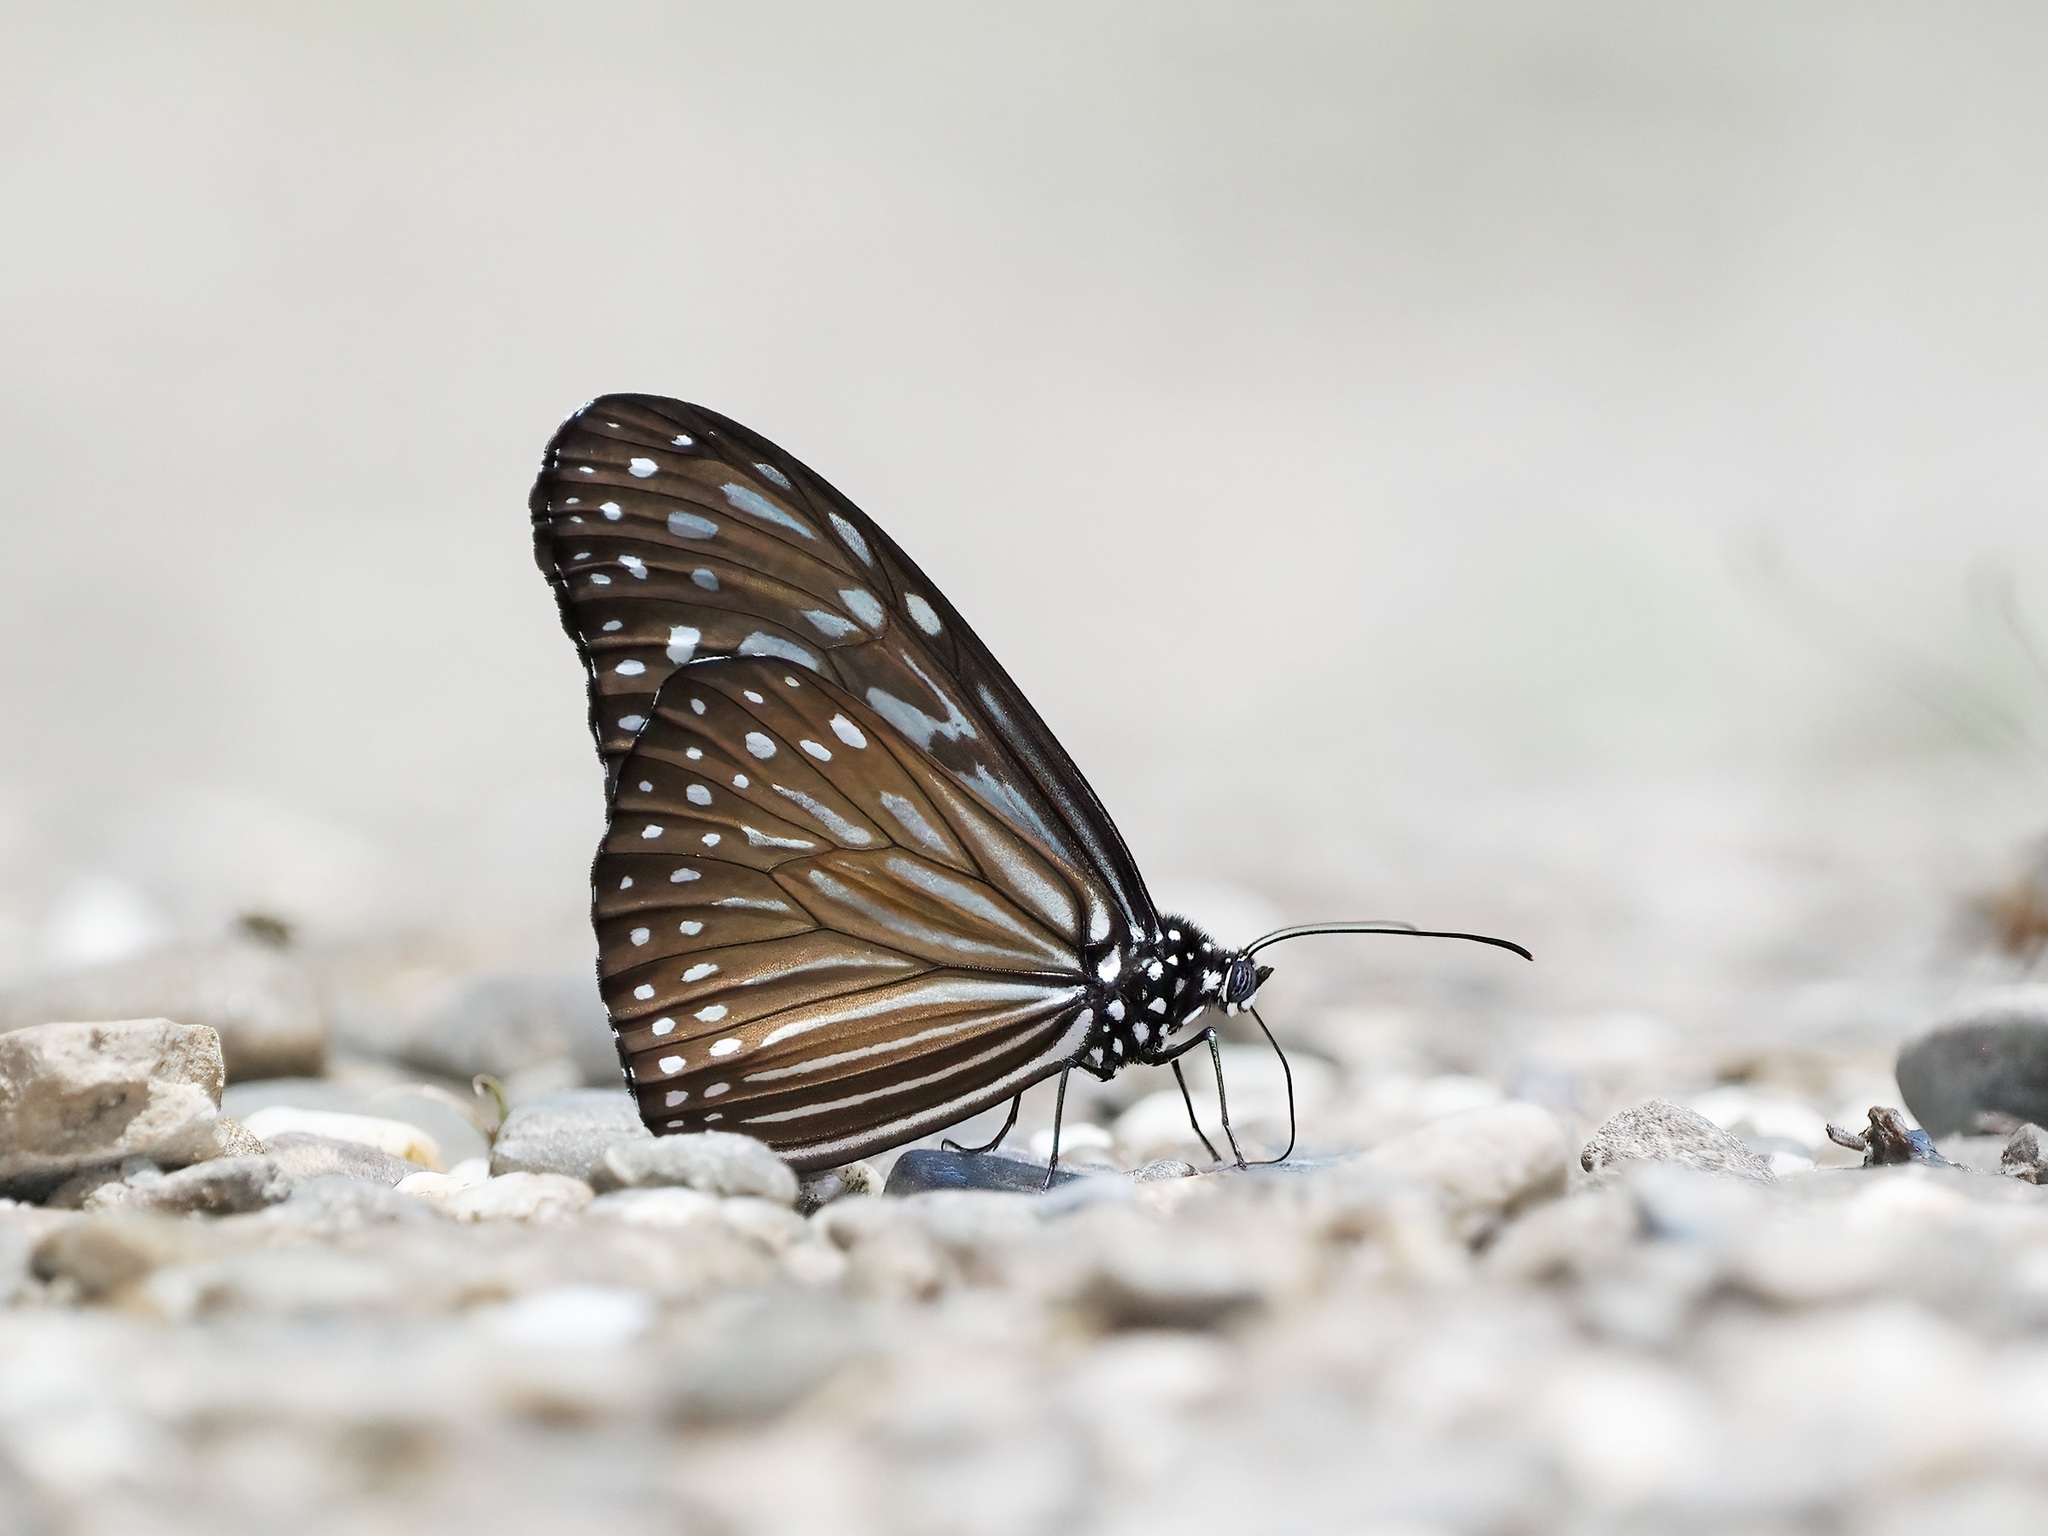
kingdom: Animalia
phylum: Arthropoda
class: Insecta
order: Lepidoptera
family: Nymphalidae
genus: Ideopsis
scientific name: Ideopsis vulgaris
